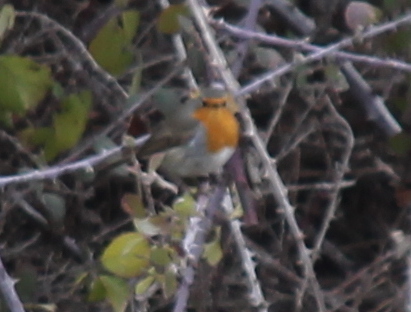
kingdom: Animalia
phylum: Chordata
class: Aves
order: Passeriformes
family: Muscicapidae
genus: Erithacus
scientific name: Erithacus rubecula
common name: European robin
